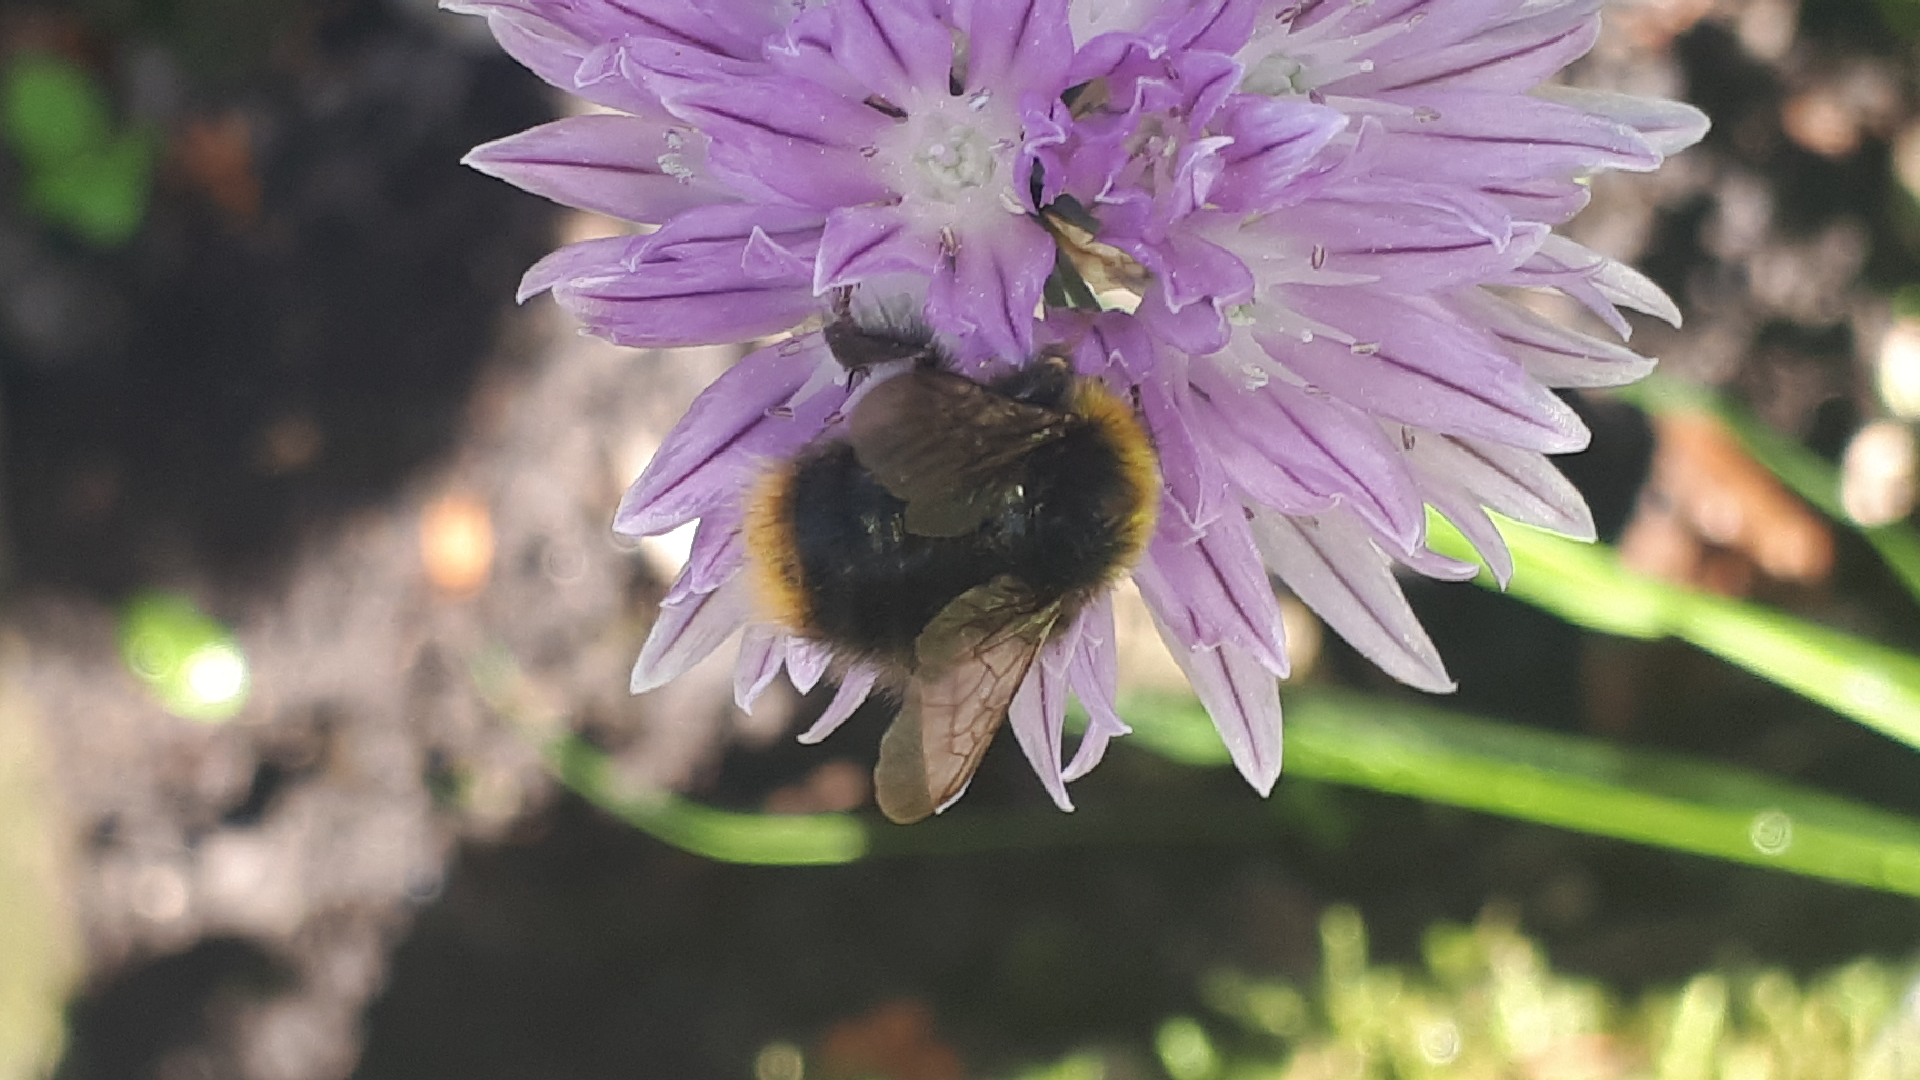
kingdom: Animalia
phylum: Arthropoda
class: Insecta
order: Hymenoptera
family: Apidae
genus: Bombus
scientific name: Bombus pratorum
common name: Early humble-bee
